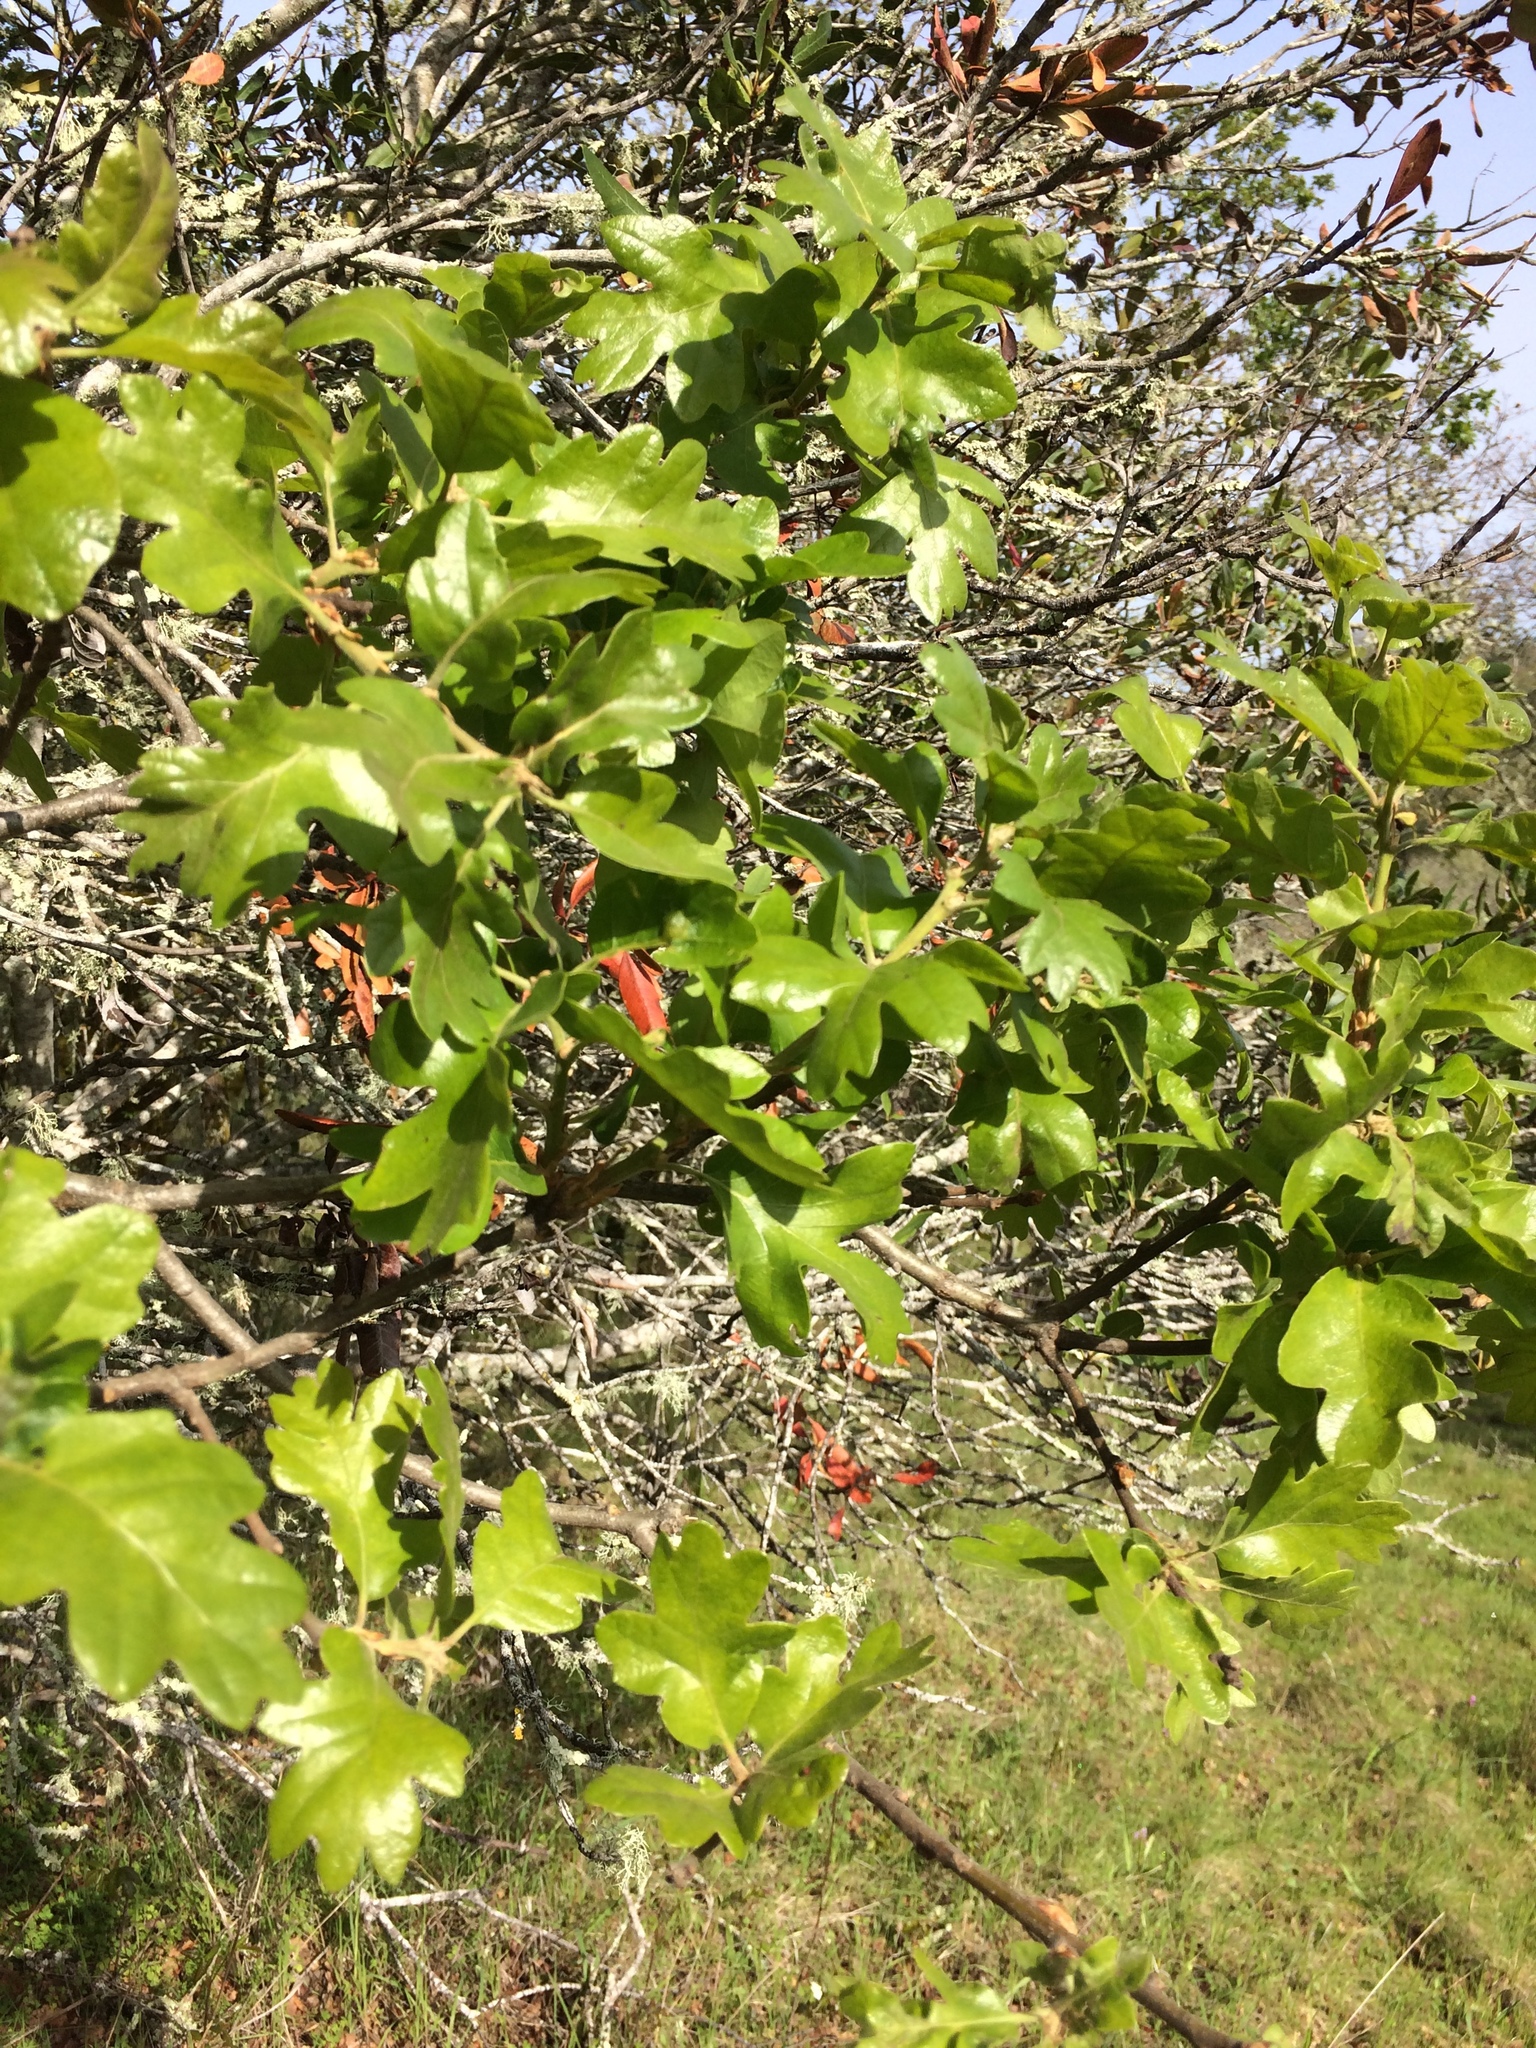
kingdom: Plantae
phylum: Tracheophyta
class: Magnoliopsida
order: Fagales
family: Fagaceae
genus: Quercus
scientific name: Quercus garryana
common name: Garry oak
